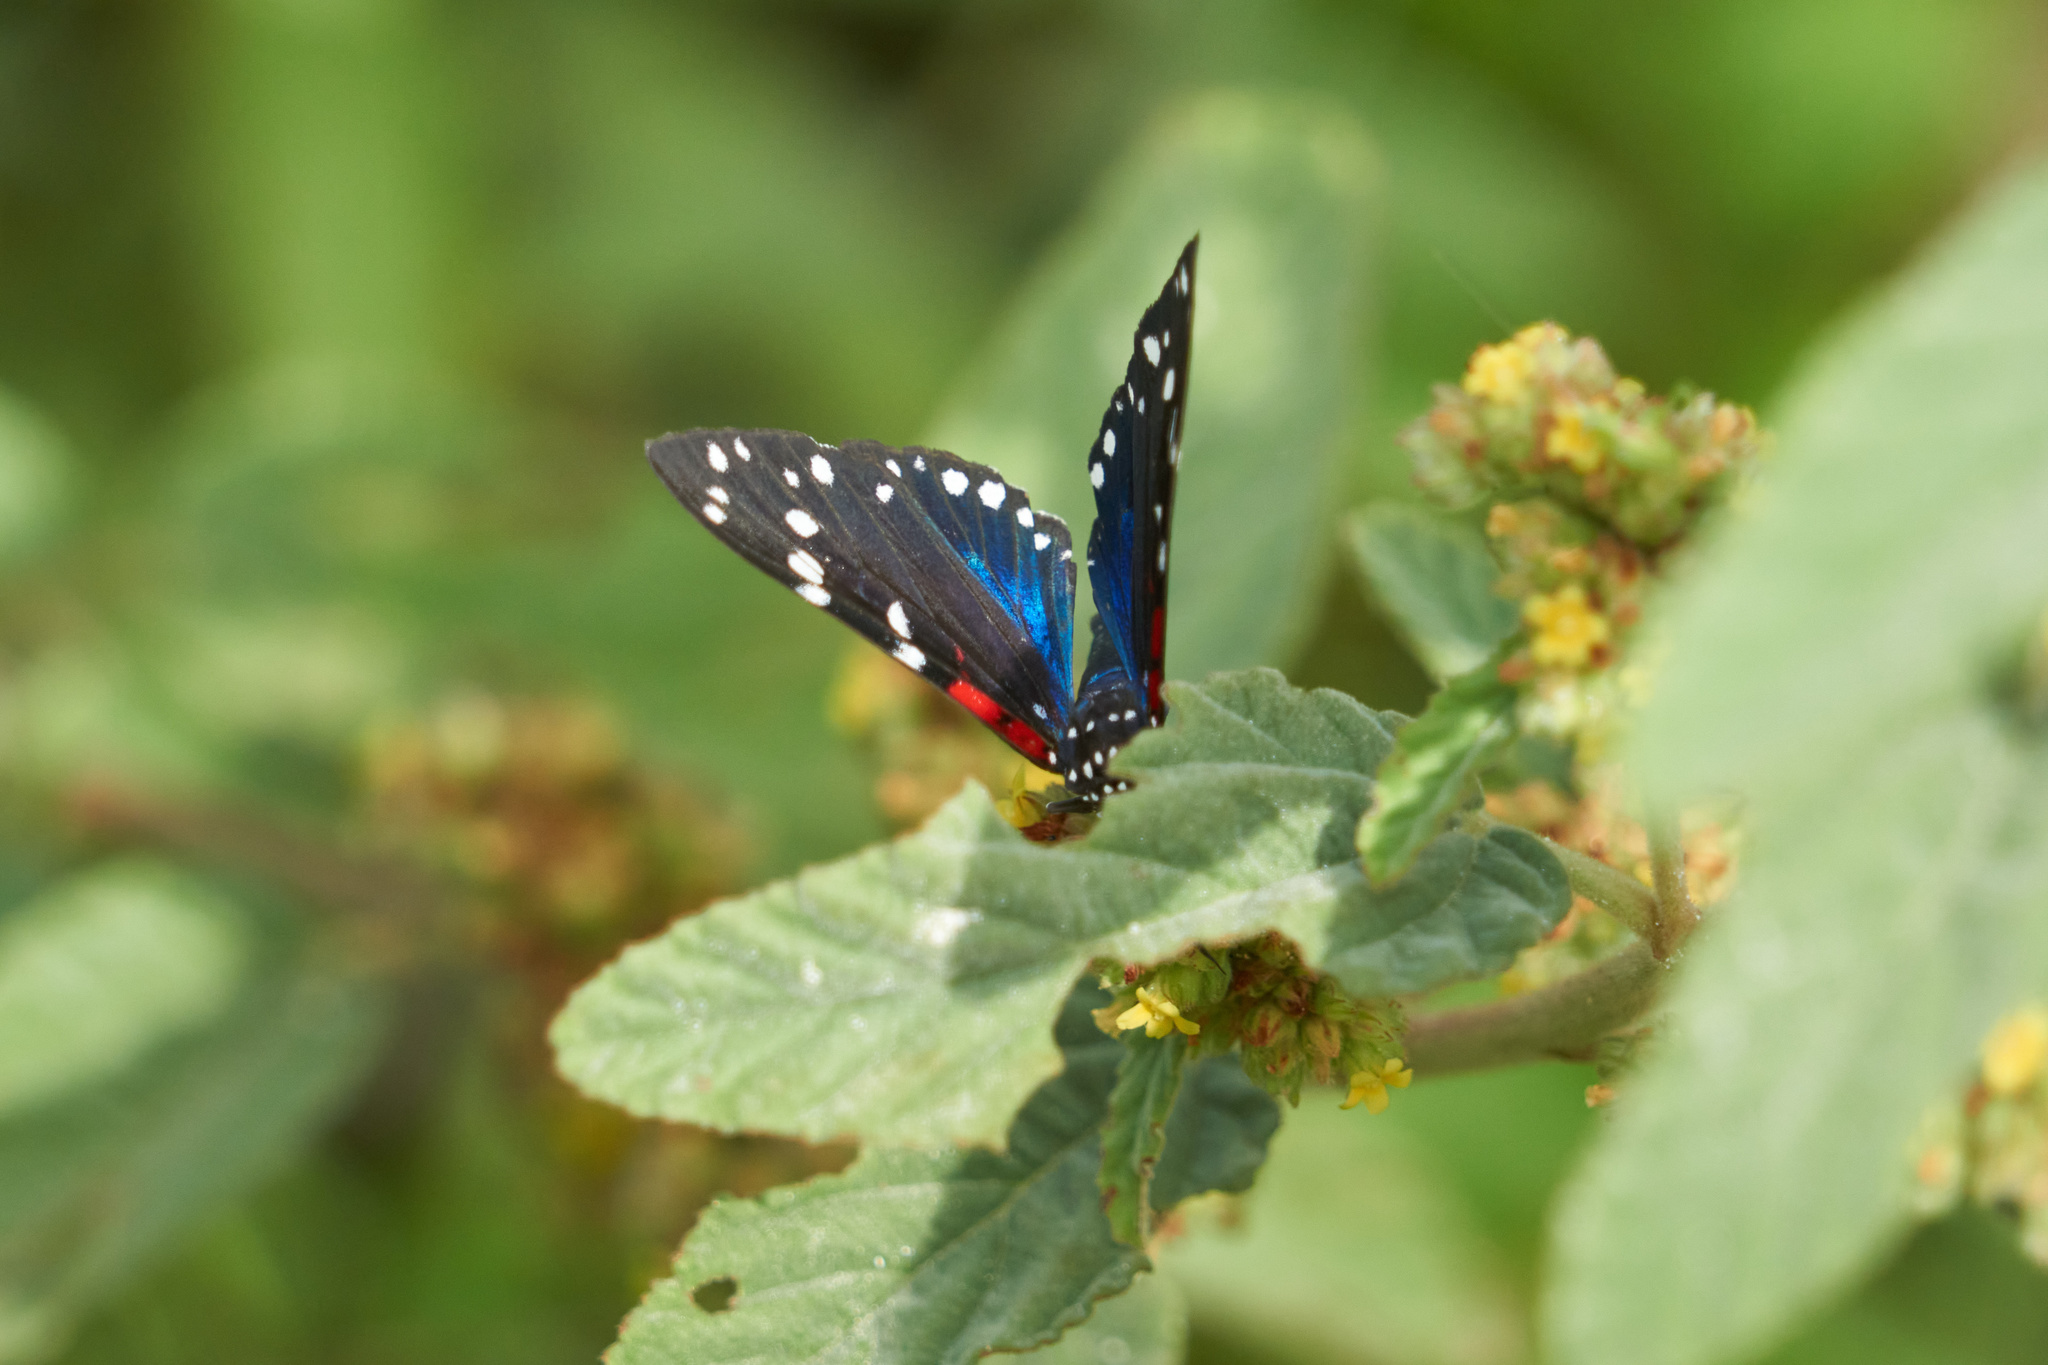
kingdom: Animalia
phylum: Arthropoda
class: Insecta
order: Lepidoptera
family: Erebidae
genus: Composia
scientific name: Composia fidelissima
